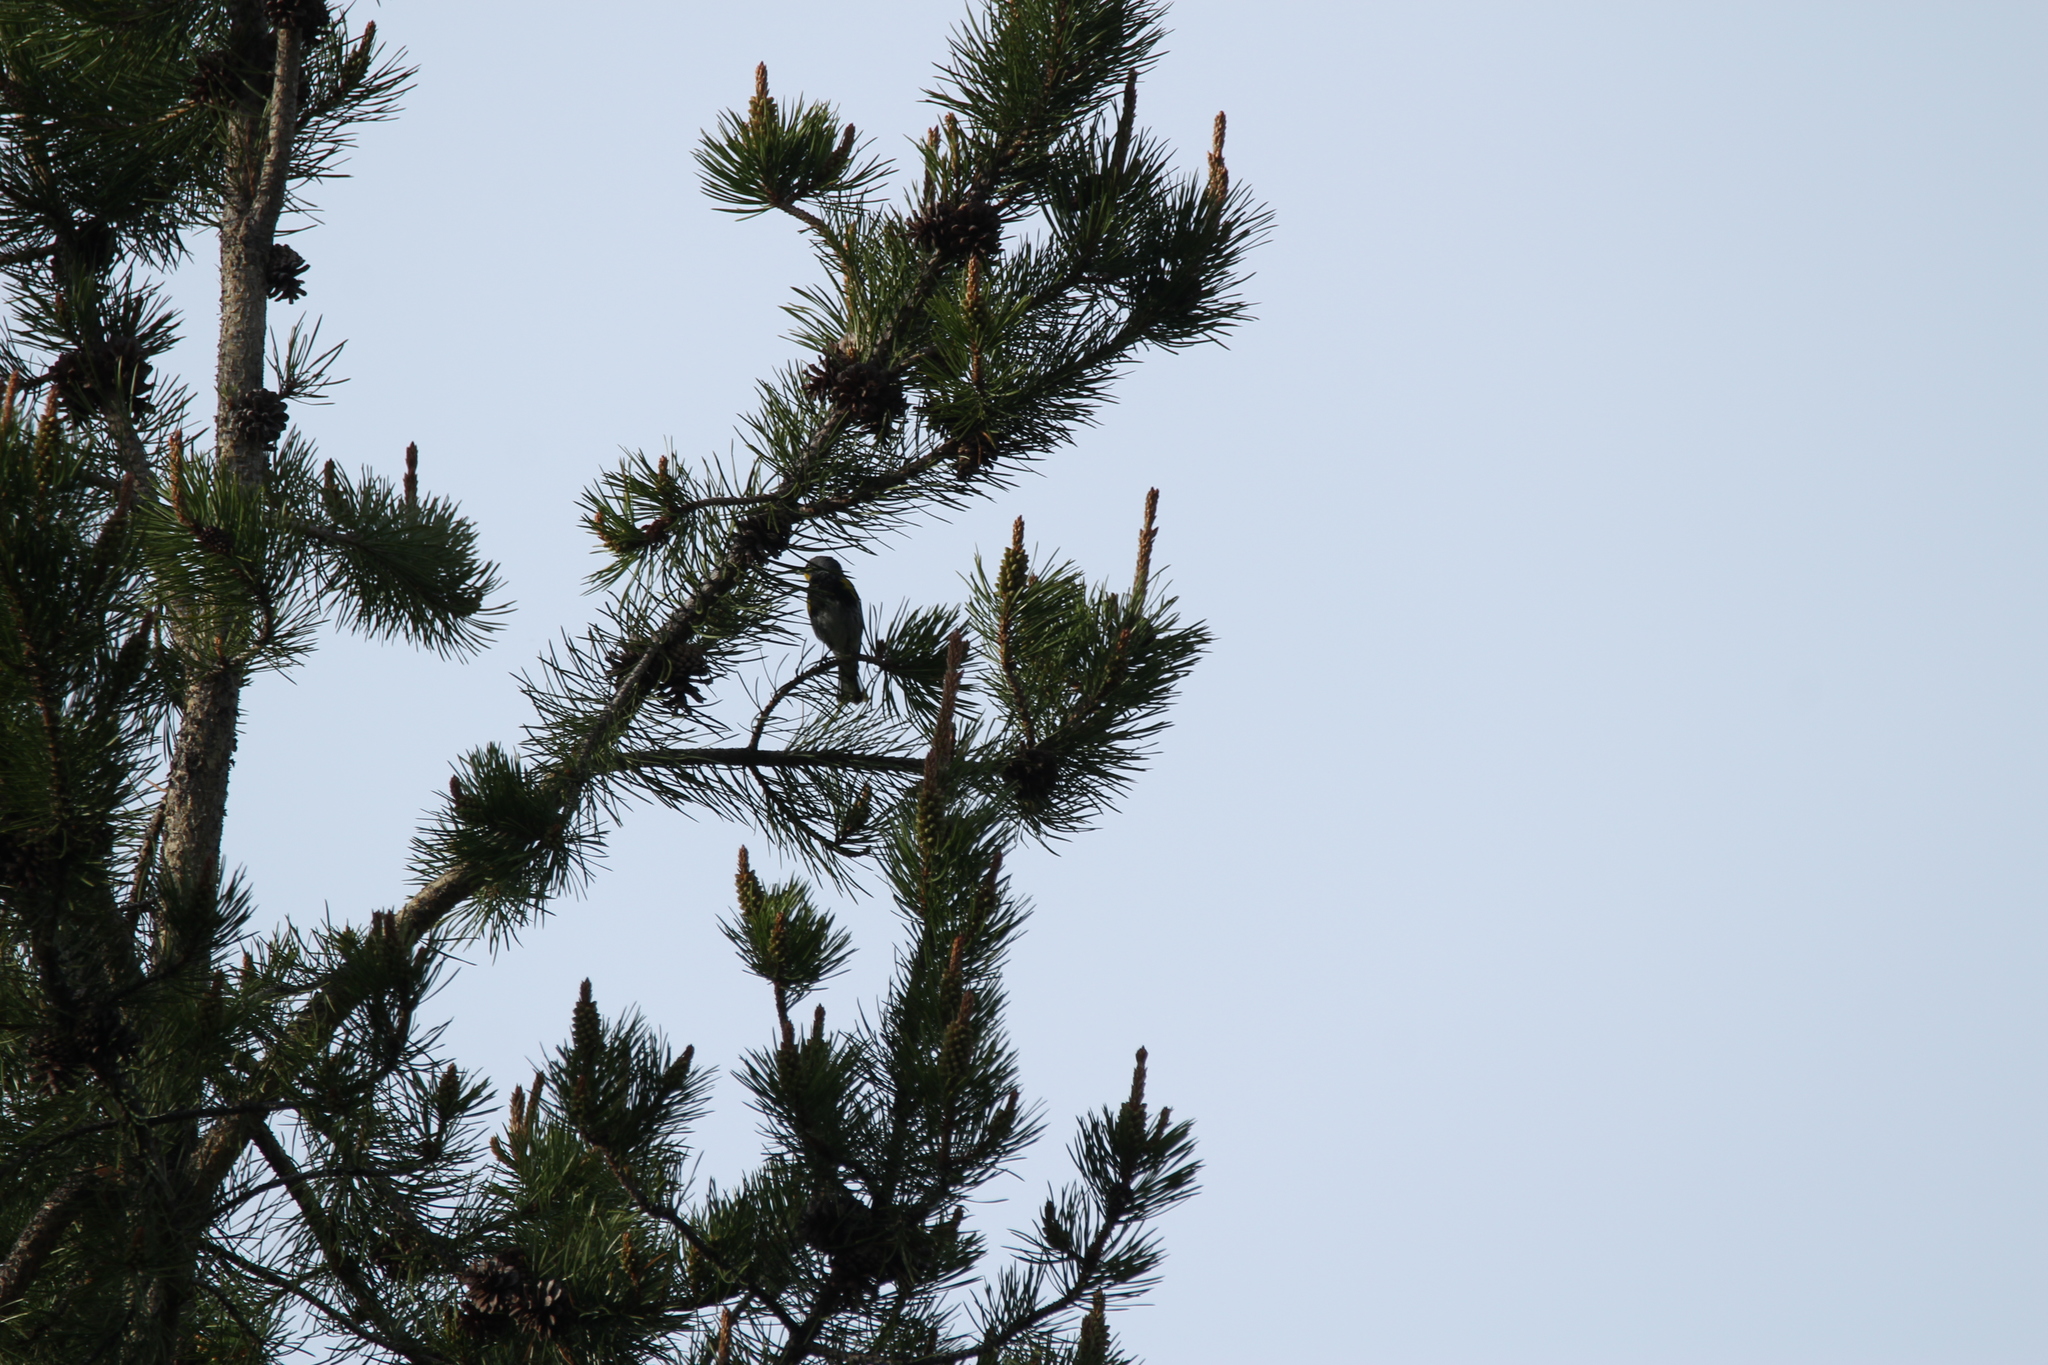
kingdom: Animalia
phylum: Chordata
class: Aves
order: Passeriformes
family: Parulidae
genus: Setophaga
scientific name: Setophaga auduboni
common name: Audubon's warbler
